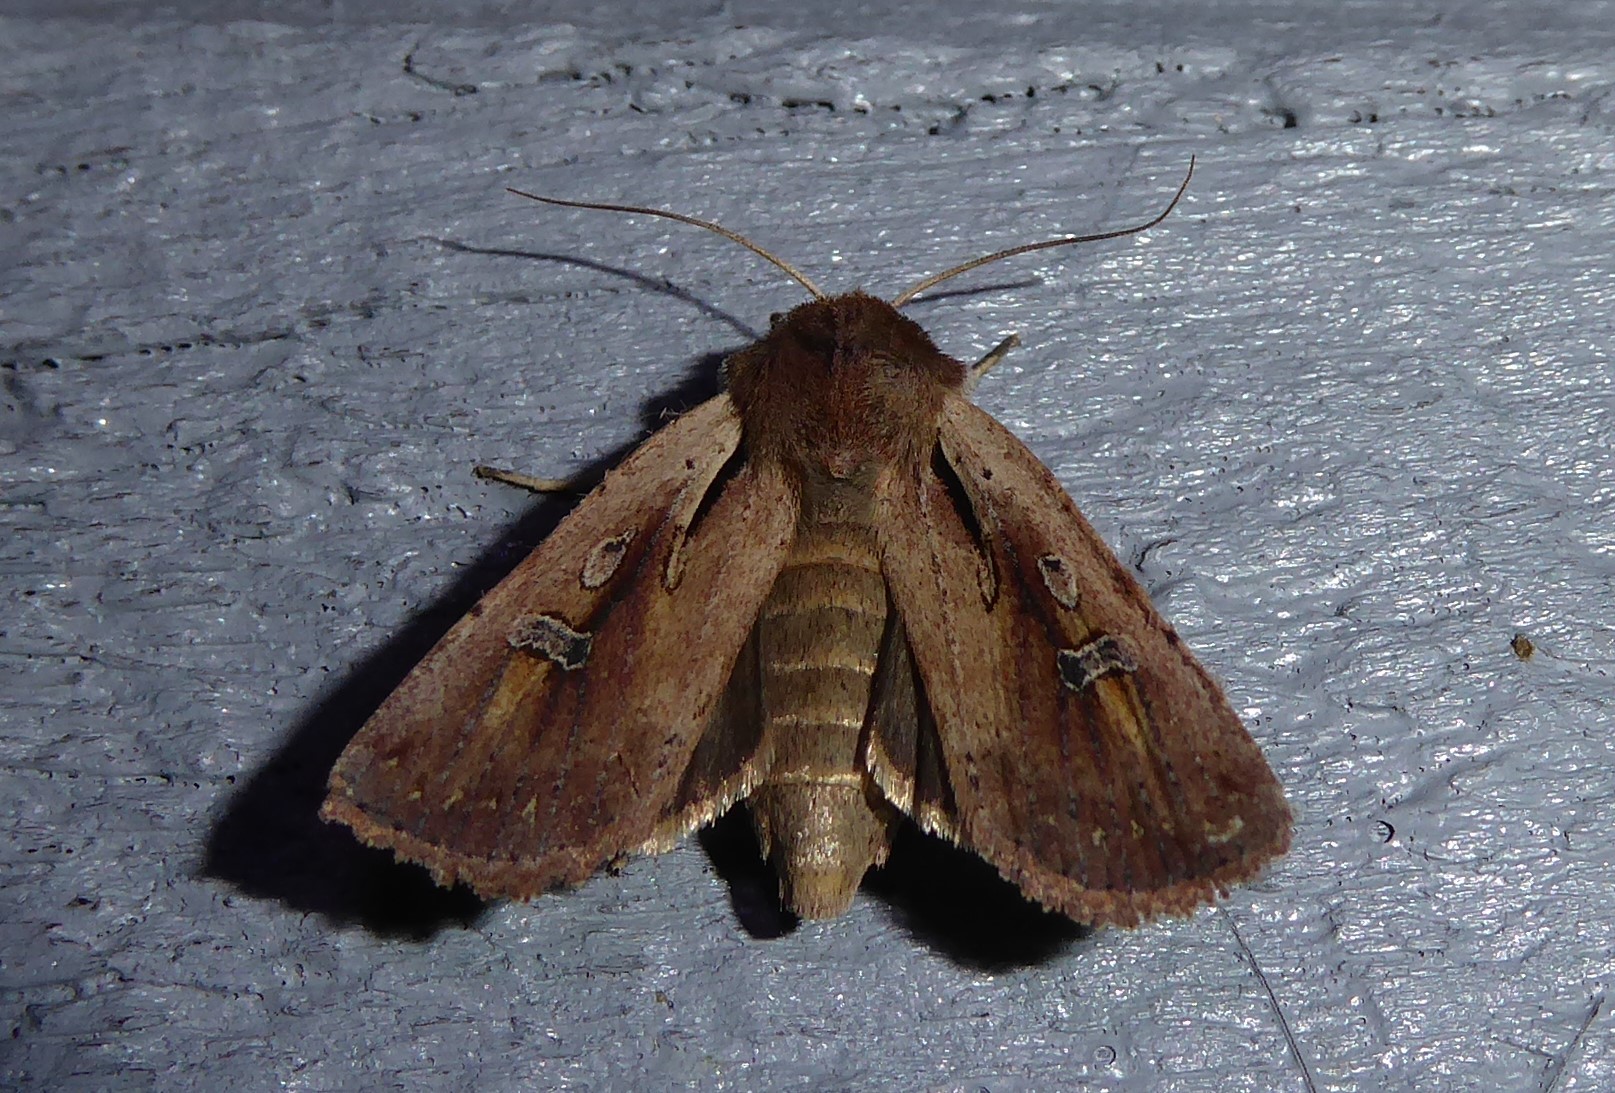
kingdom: Animalia
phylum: Arthropoda
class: Insecta
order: Lepidoptera
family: Noctuidae
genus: Ichneutica
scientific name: Ichneutica atristriga
